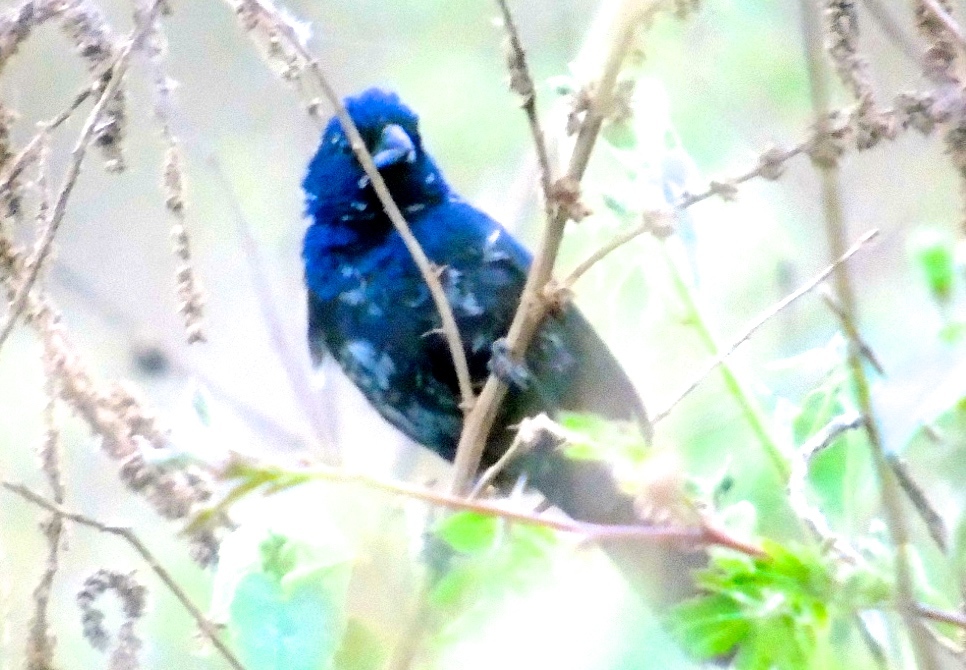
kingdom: Animalia
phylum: Chordata
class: Aves
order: Passeriformes
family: Thraupidae
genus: Volatinia
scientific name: Volatinia jacarina
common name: Blue-black grassquit
